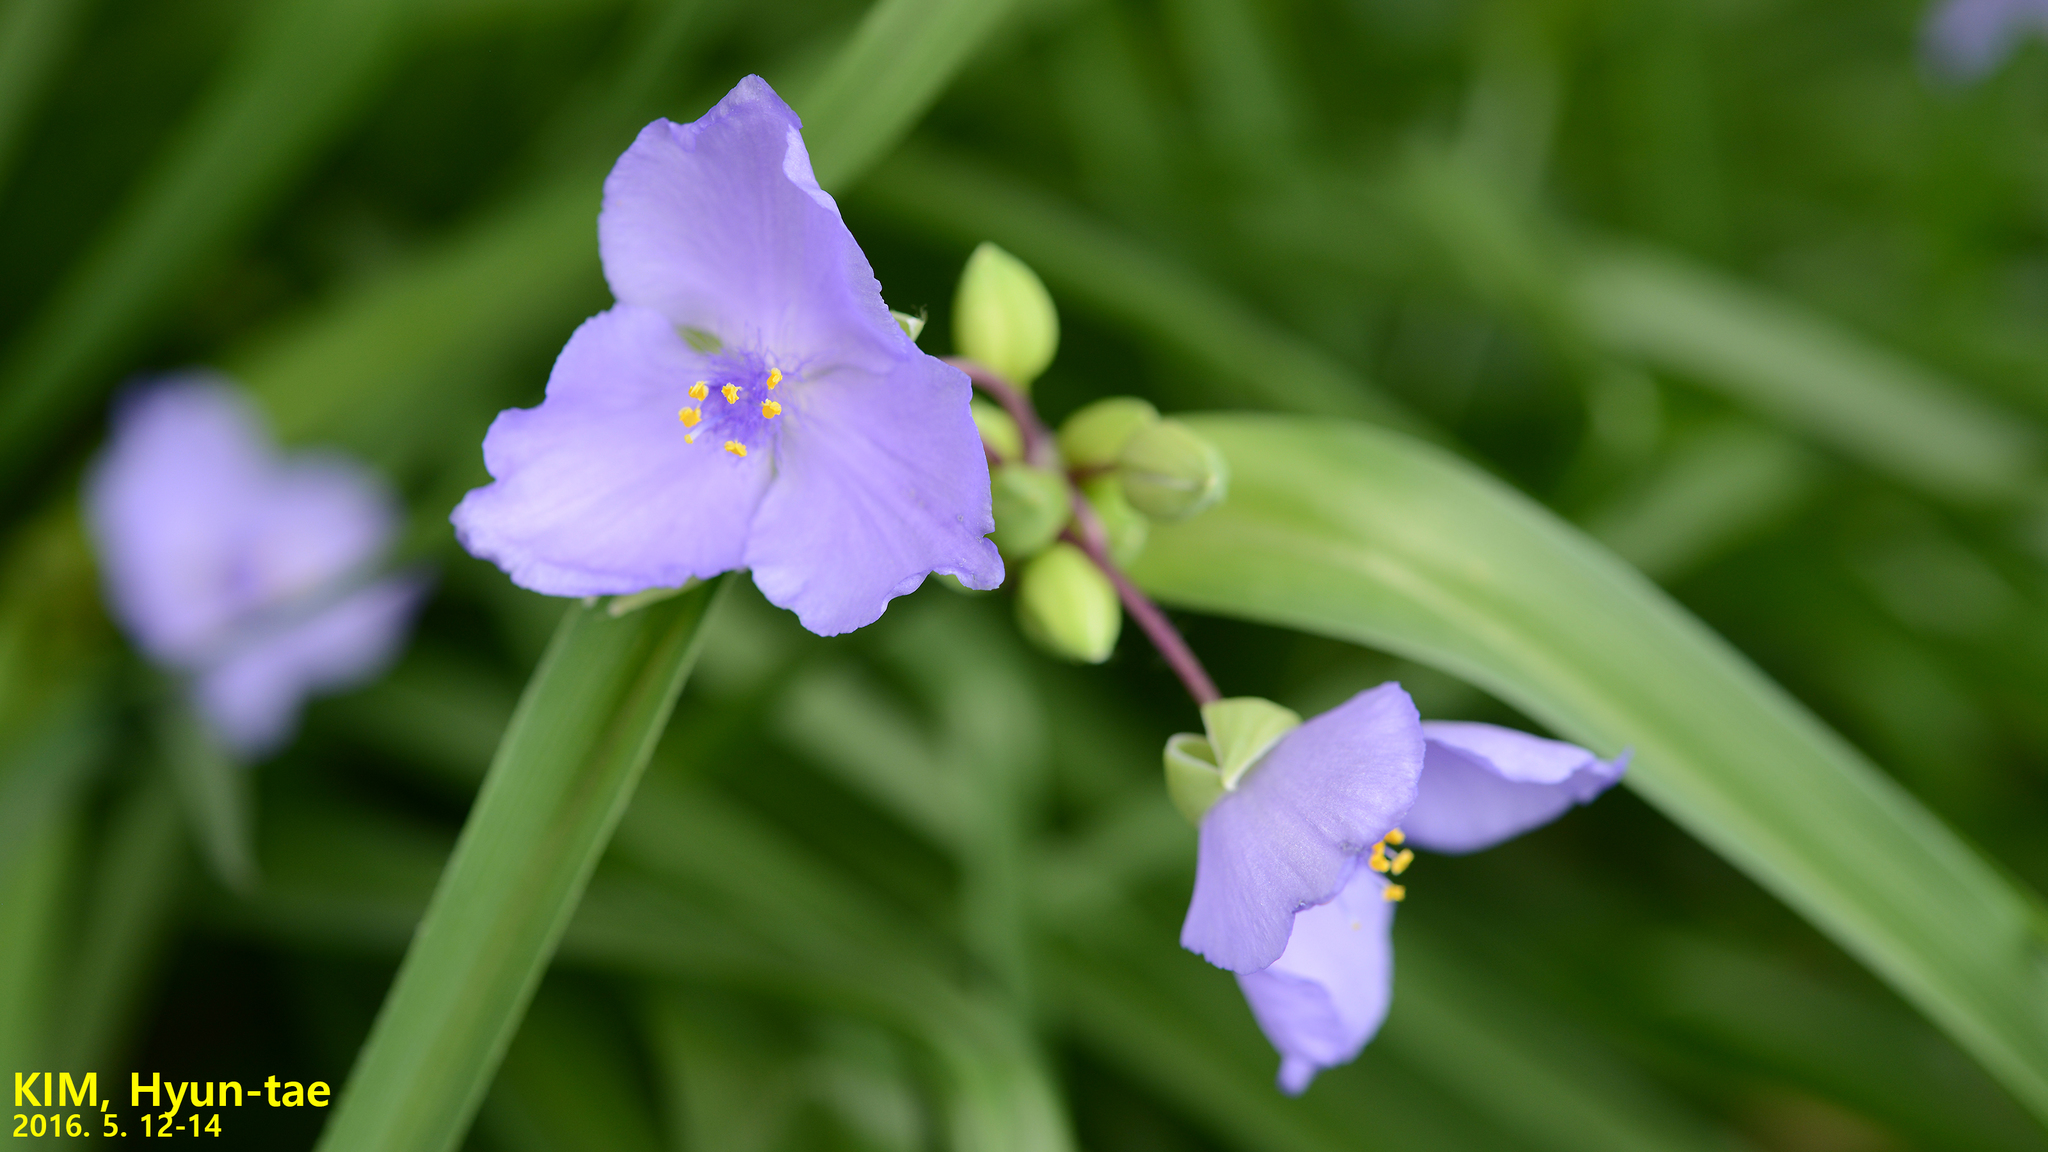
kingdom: Plantae
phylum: Tracheophyta
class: Liliopsida
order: Commelinales
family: Commelinaceae
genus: Tradescantia
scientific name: Tradescantia ohiensis
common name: Ohio spiderwort
